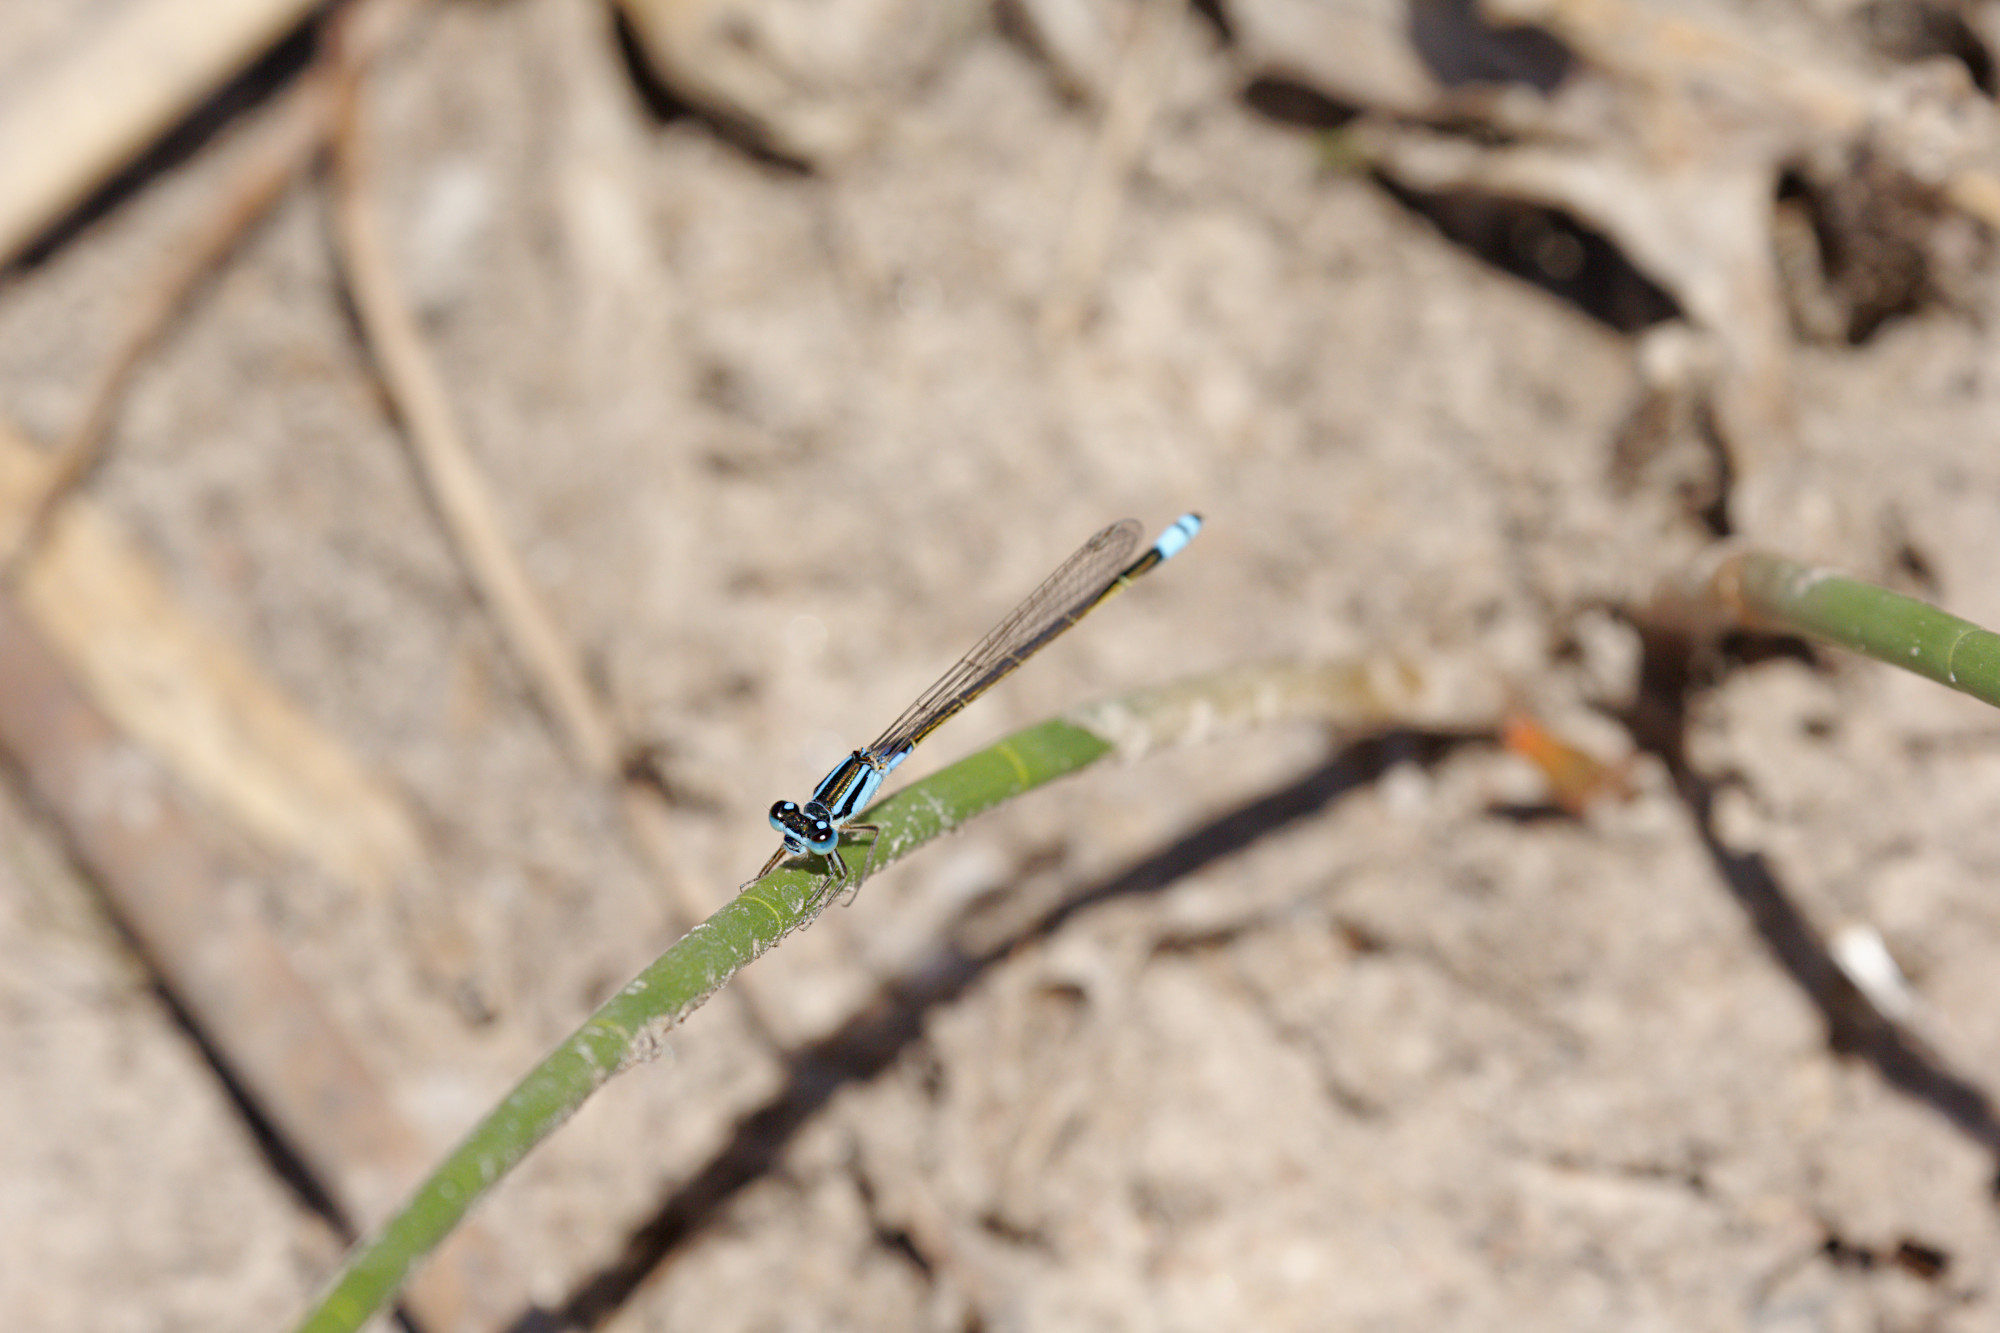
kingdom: Animalia
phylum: Arthropoda
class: Insecta
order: Odonata
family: Coenagrionidae
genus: Ischnura
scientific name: Ischnura heterosticta
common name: Common bluetail
